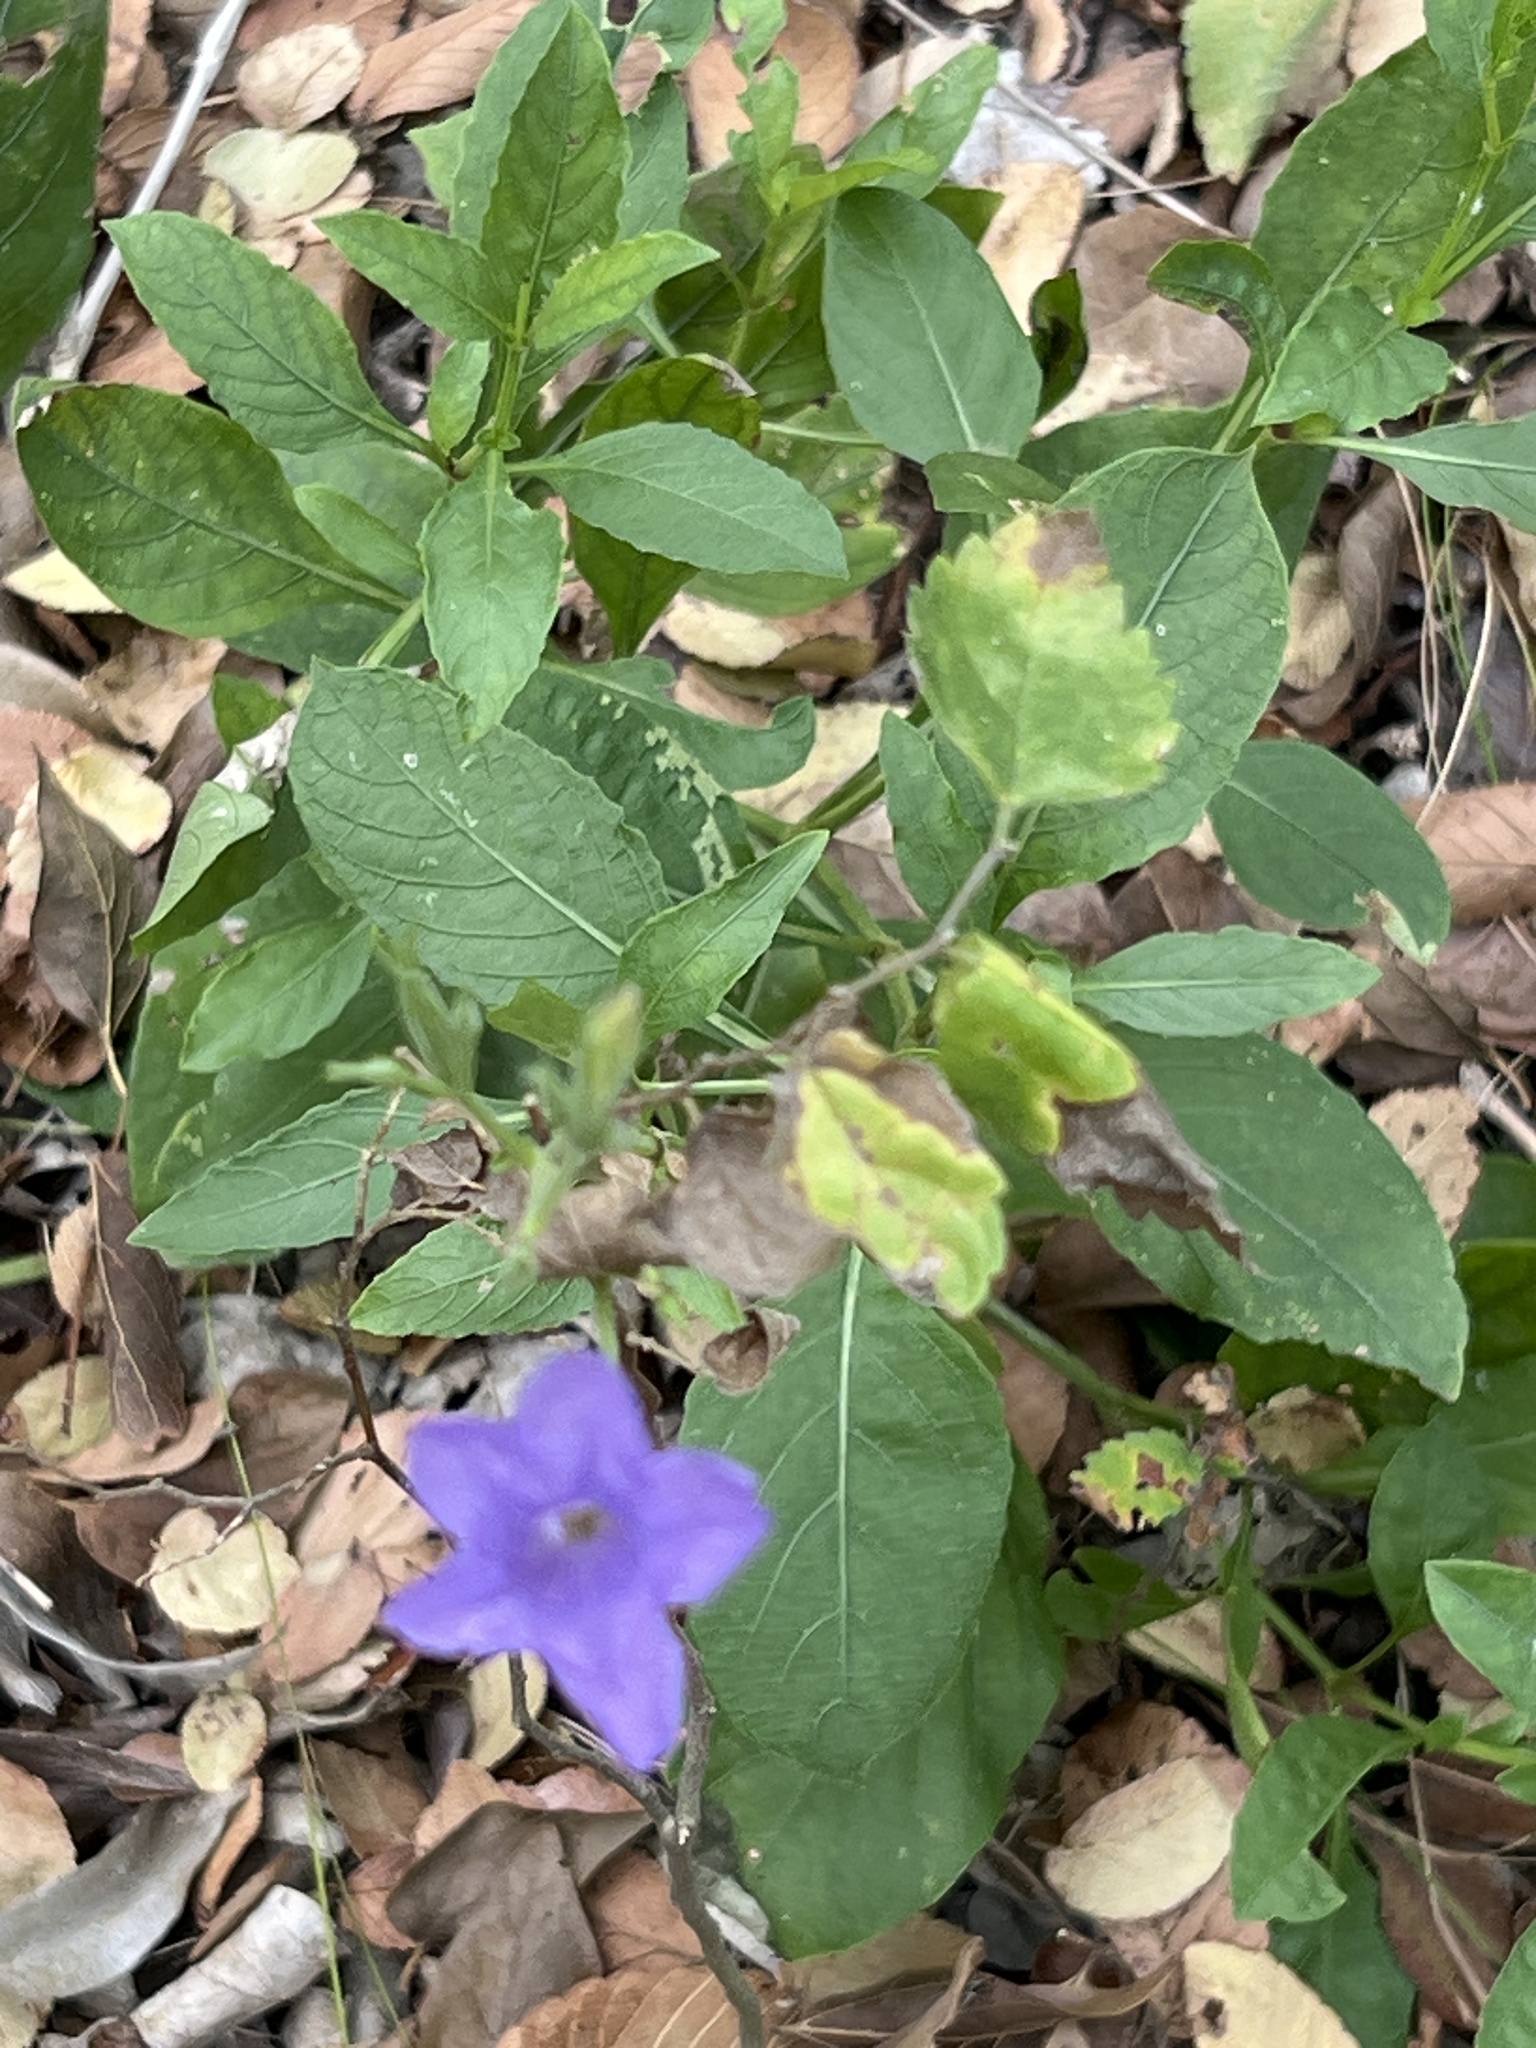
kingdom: Plantae
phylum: Tracheophyta
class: Magnoliopsida
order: Lamiales
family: Acanthaceae
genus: Ruellia
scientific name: Ruellia ciliatiflora
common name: Hairyflower wild petunia
